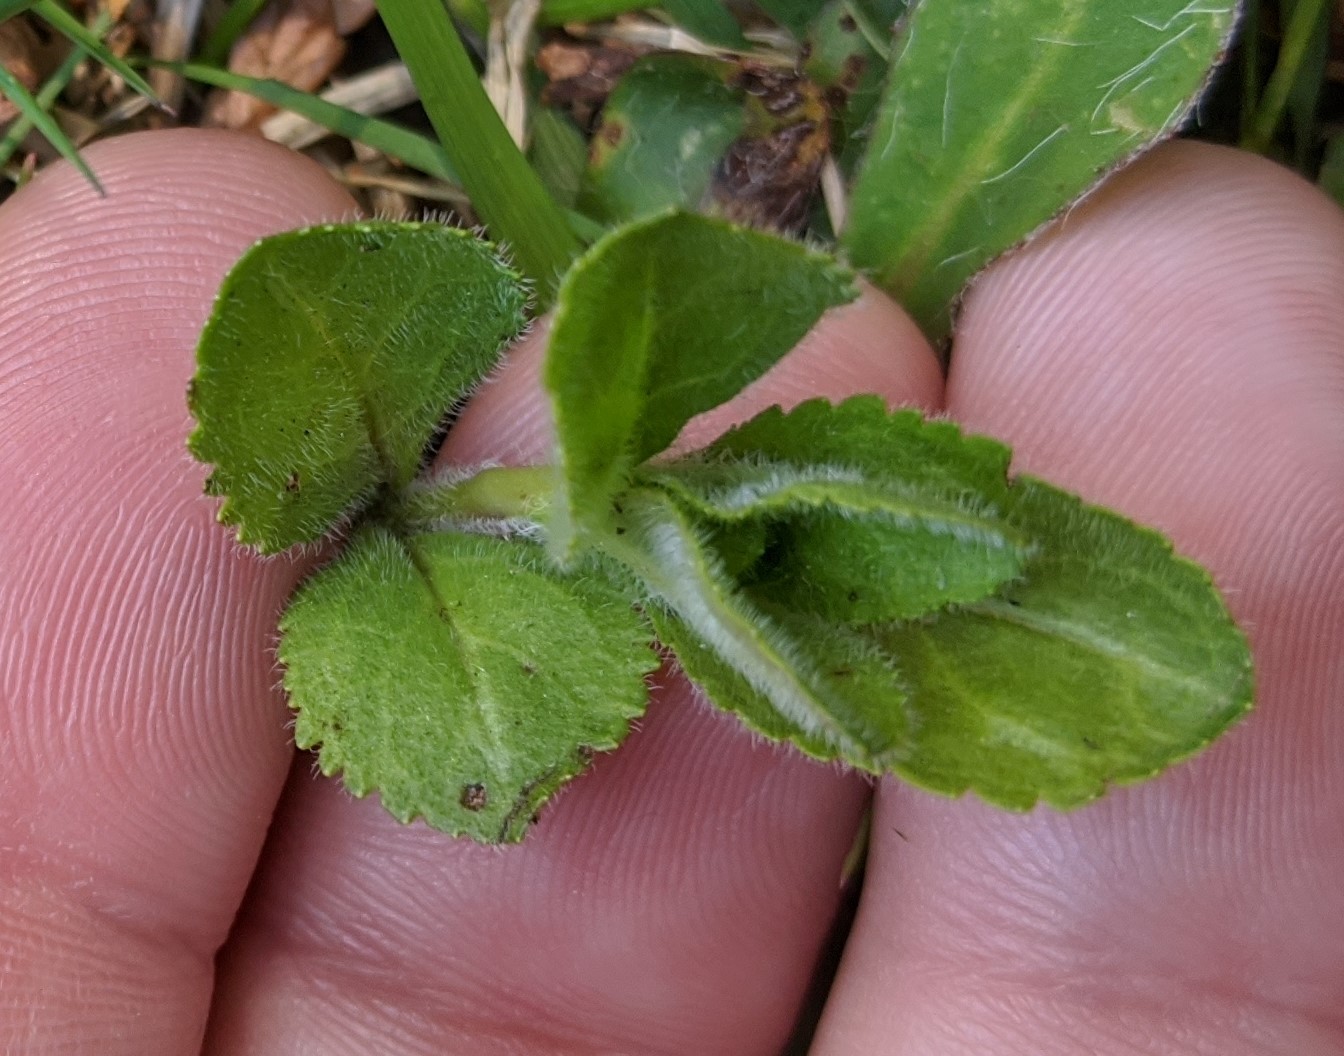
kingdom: Plantae
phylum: Tracheophyta
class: Magnoliopsida
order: Lamiales
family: Plantaginaceae
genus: Veronica
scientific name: Veronica officinalis
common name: Common speedwell
